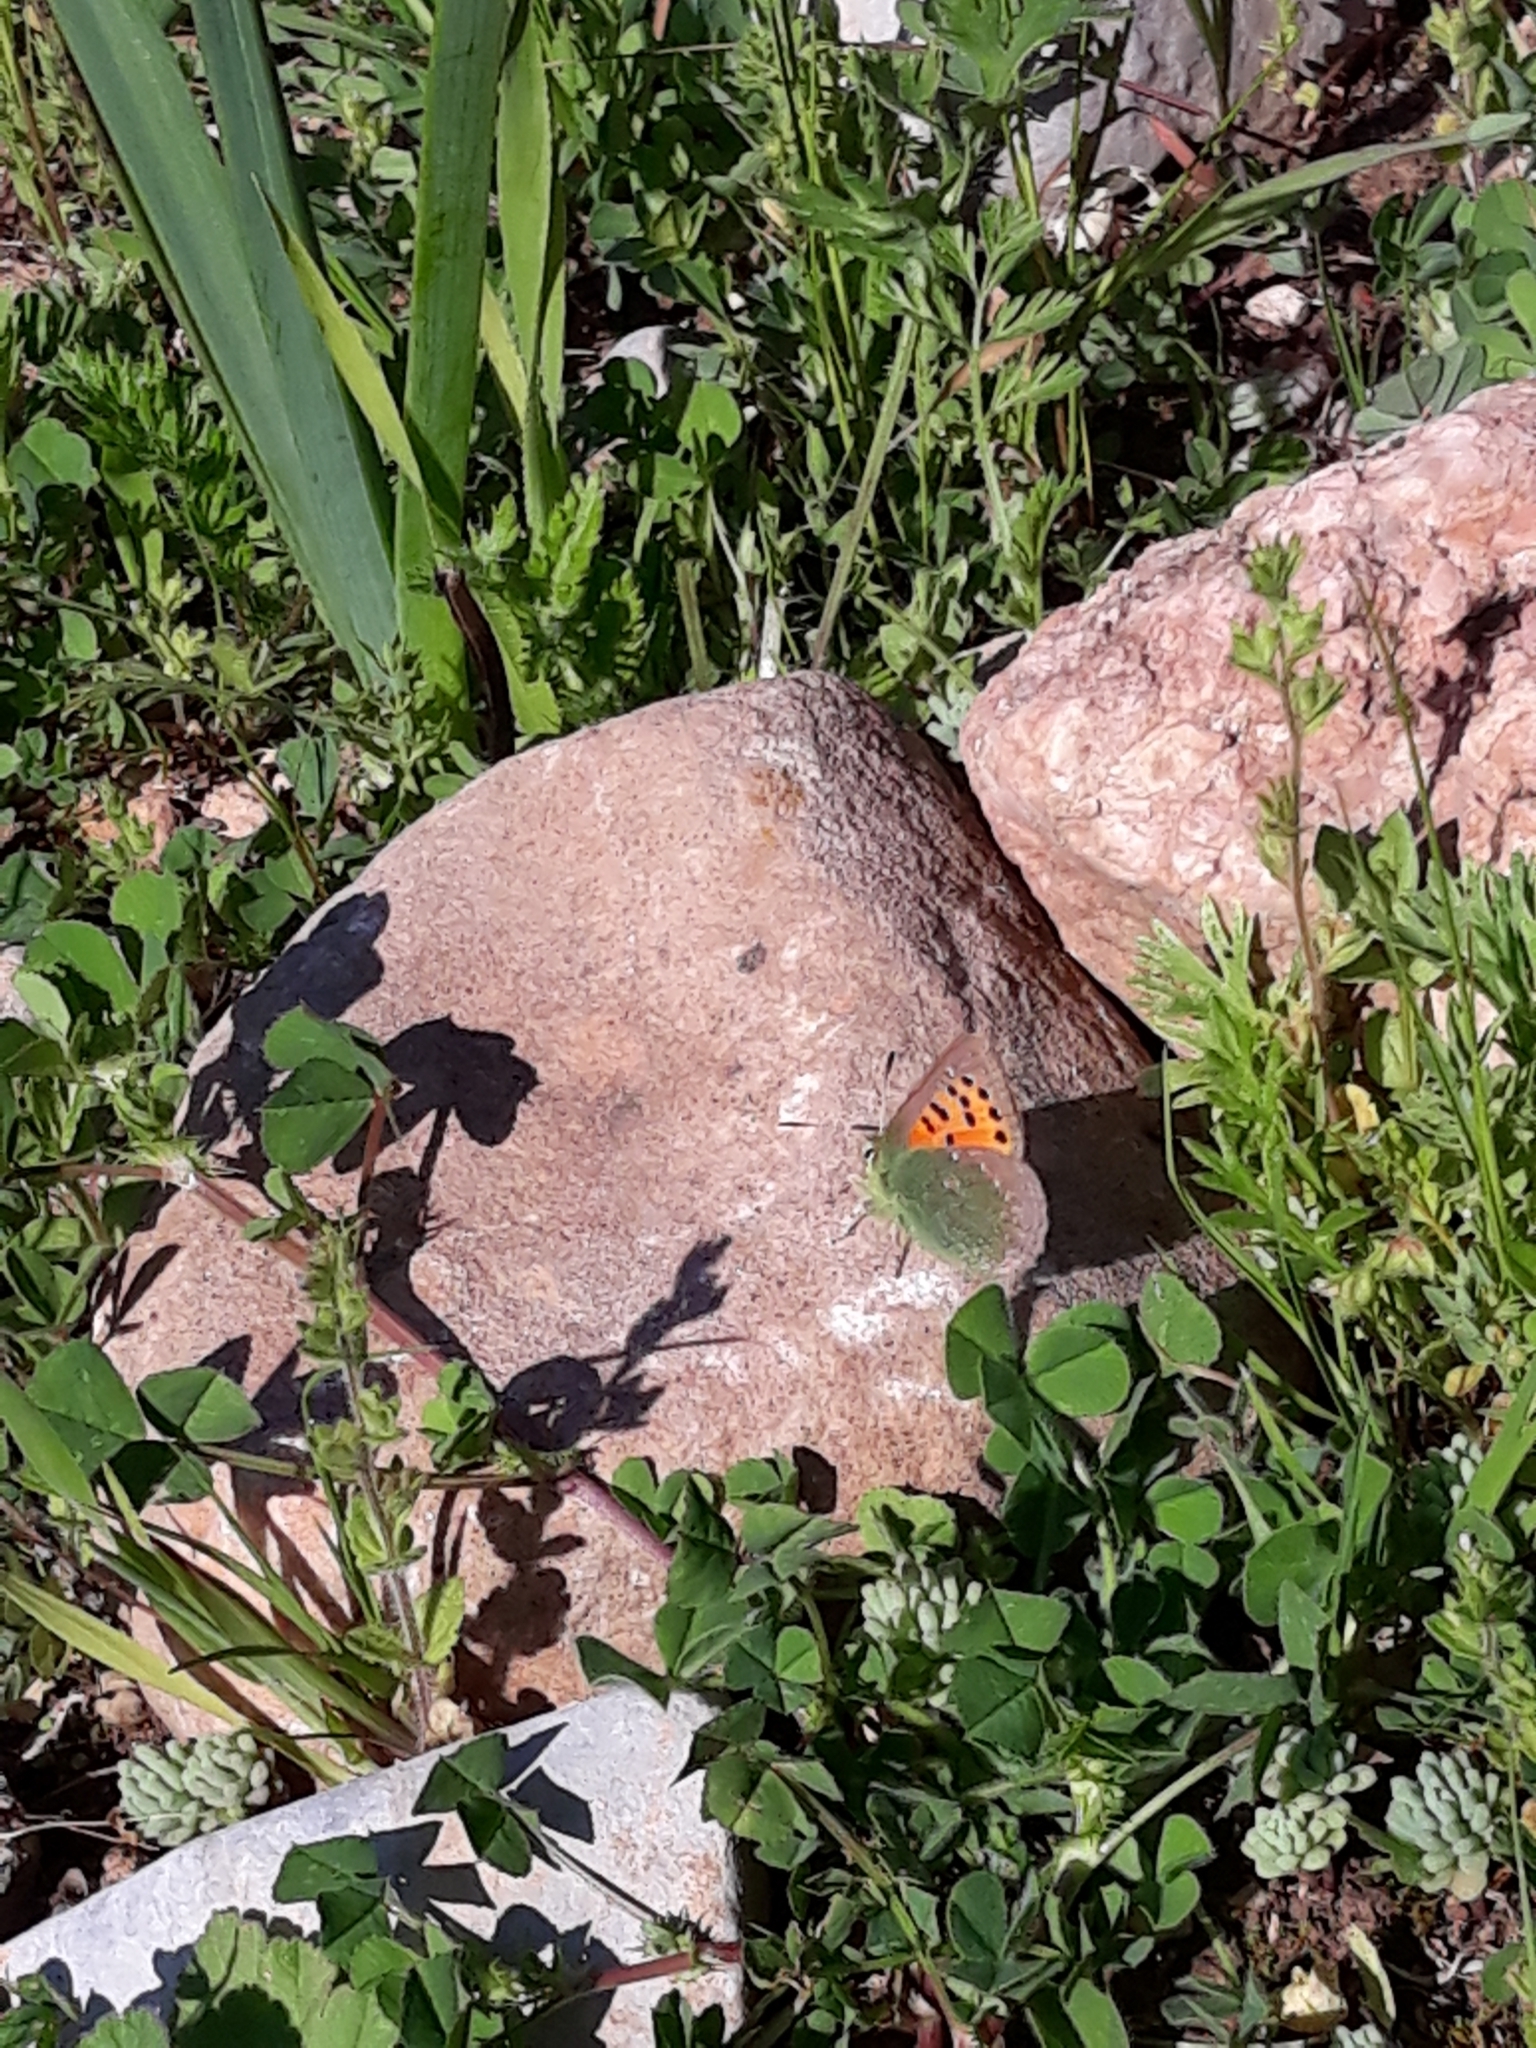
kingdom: Animalia
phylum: Arthropoda
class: Insecta
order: Lepidoptera
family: Lycaenidae
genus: Tomares
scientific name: Tomares ballus
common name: Provence hairstreak
